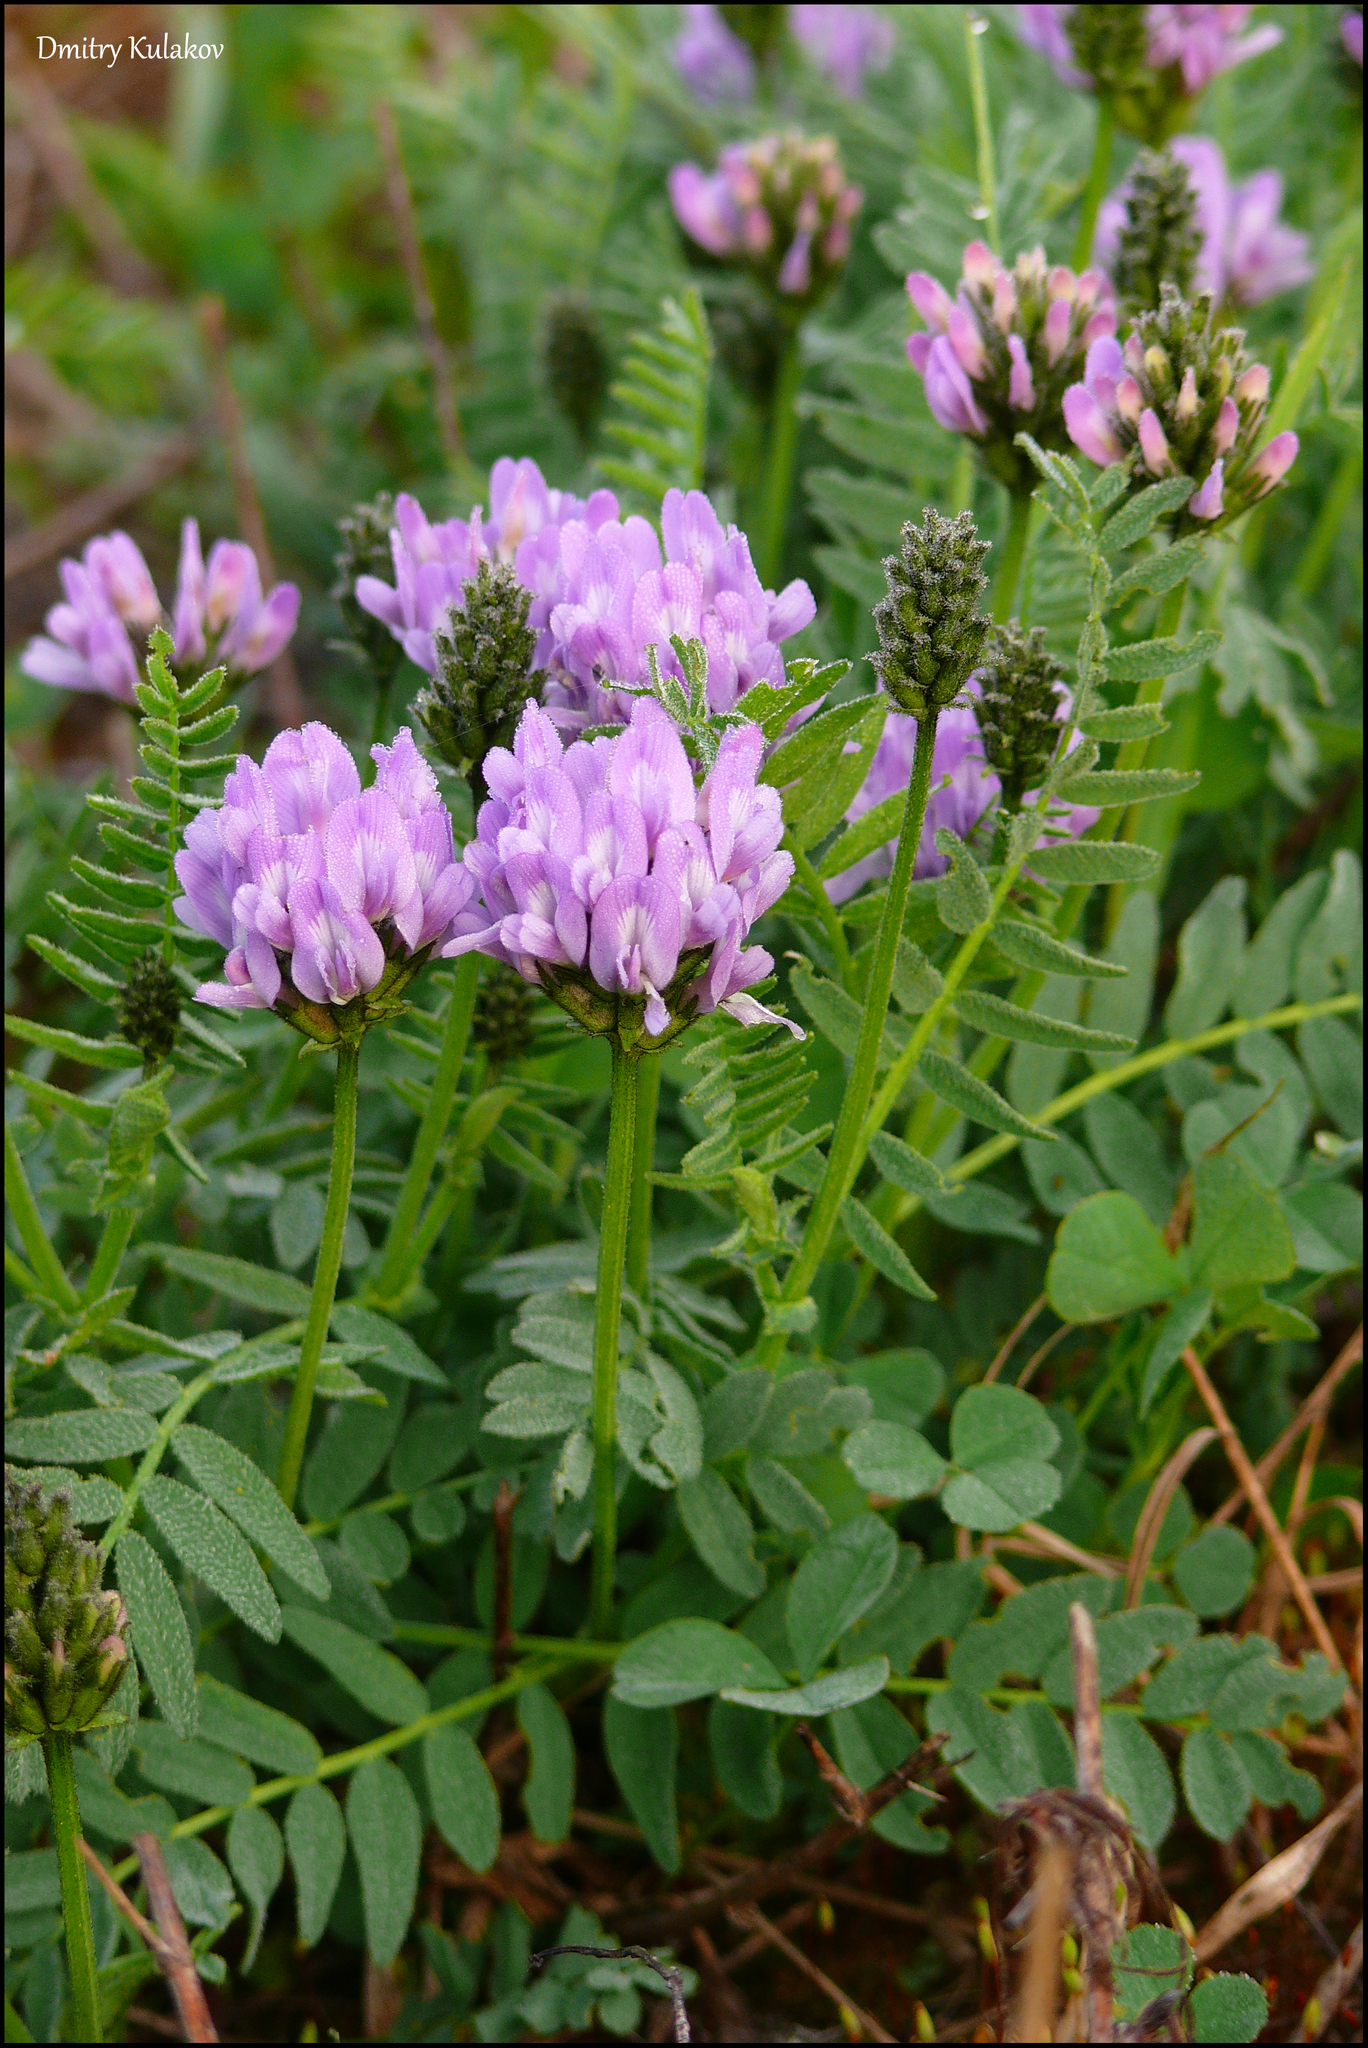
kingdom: Plantae
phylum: Tracheophyta
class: Magnoliopsida
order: Fabales
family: Fabaceae
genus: Astragalus
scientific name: Astragalus danicus
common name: Purple milk-vetch
